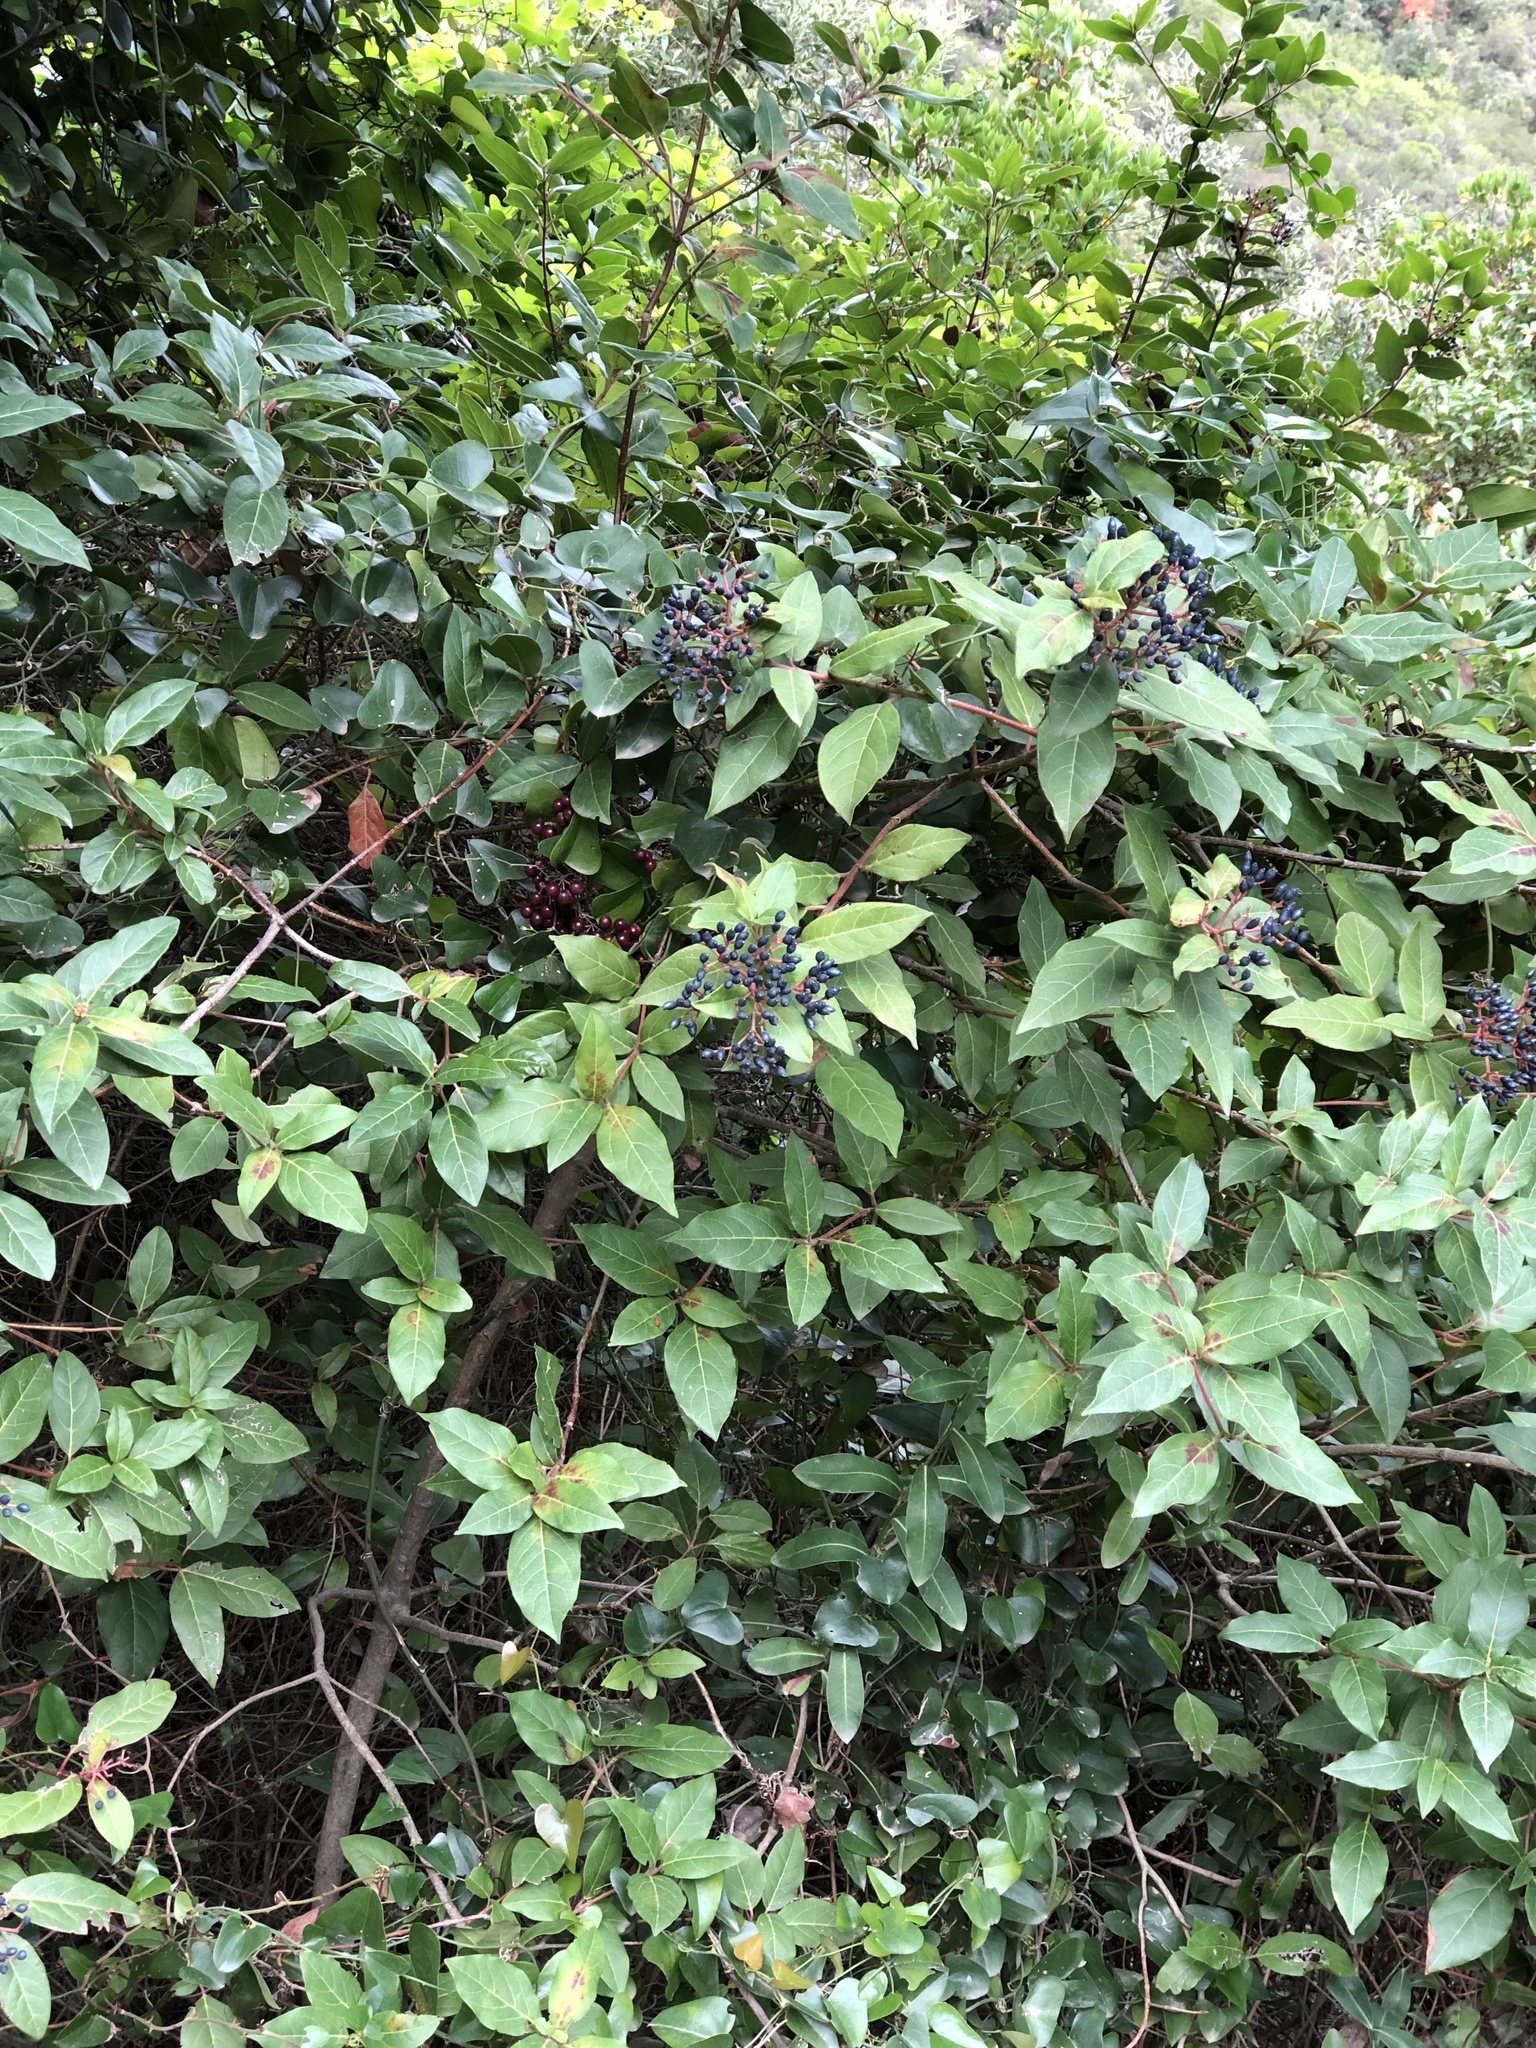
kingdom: Plantae
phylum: Tracheophyta
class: Magnoliopsida
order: Dipsacales
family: Viburnaceae
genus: Viburnum
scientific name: Viburnum tinus
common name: Laurustinus
